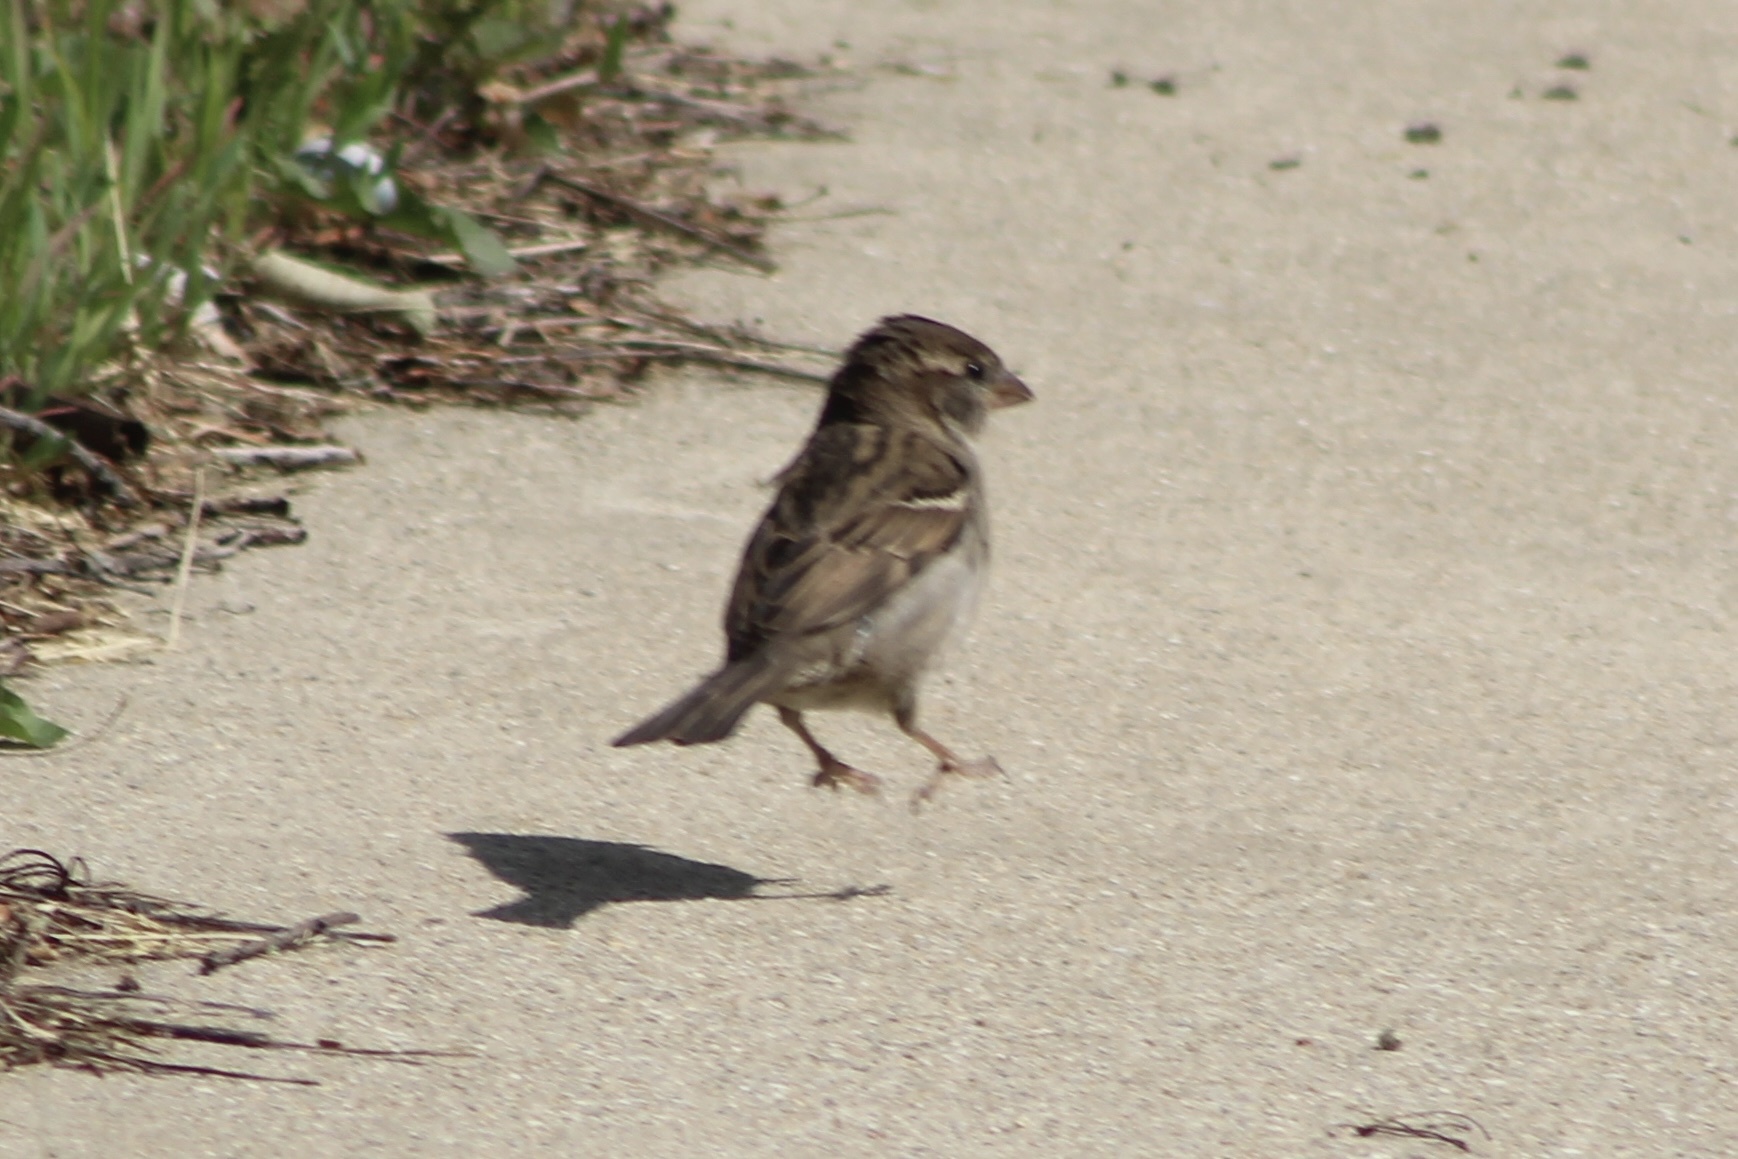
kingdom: Animalia
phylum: Chordata
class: Aves
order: Passeriformes
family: Passeridae
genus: Passer
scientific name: Passer domesticus
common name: House sparrow
